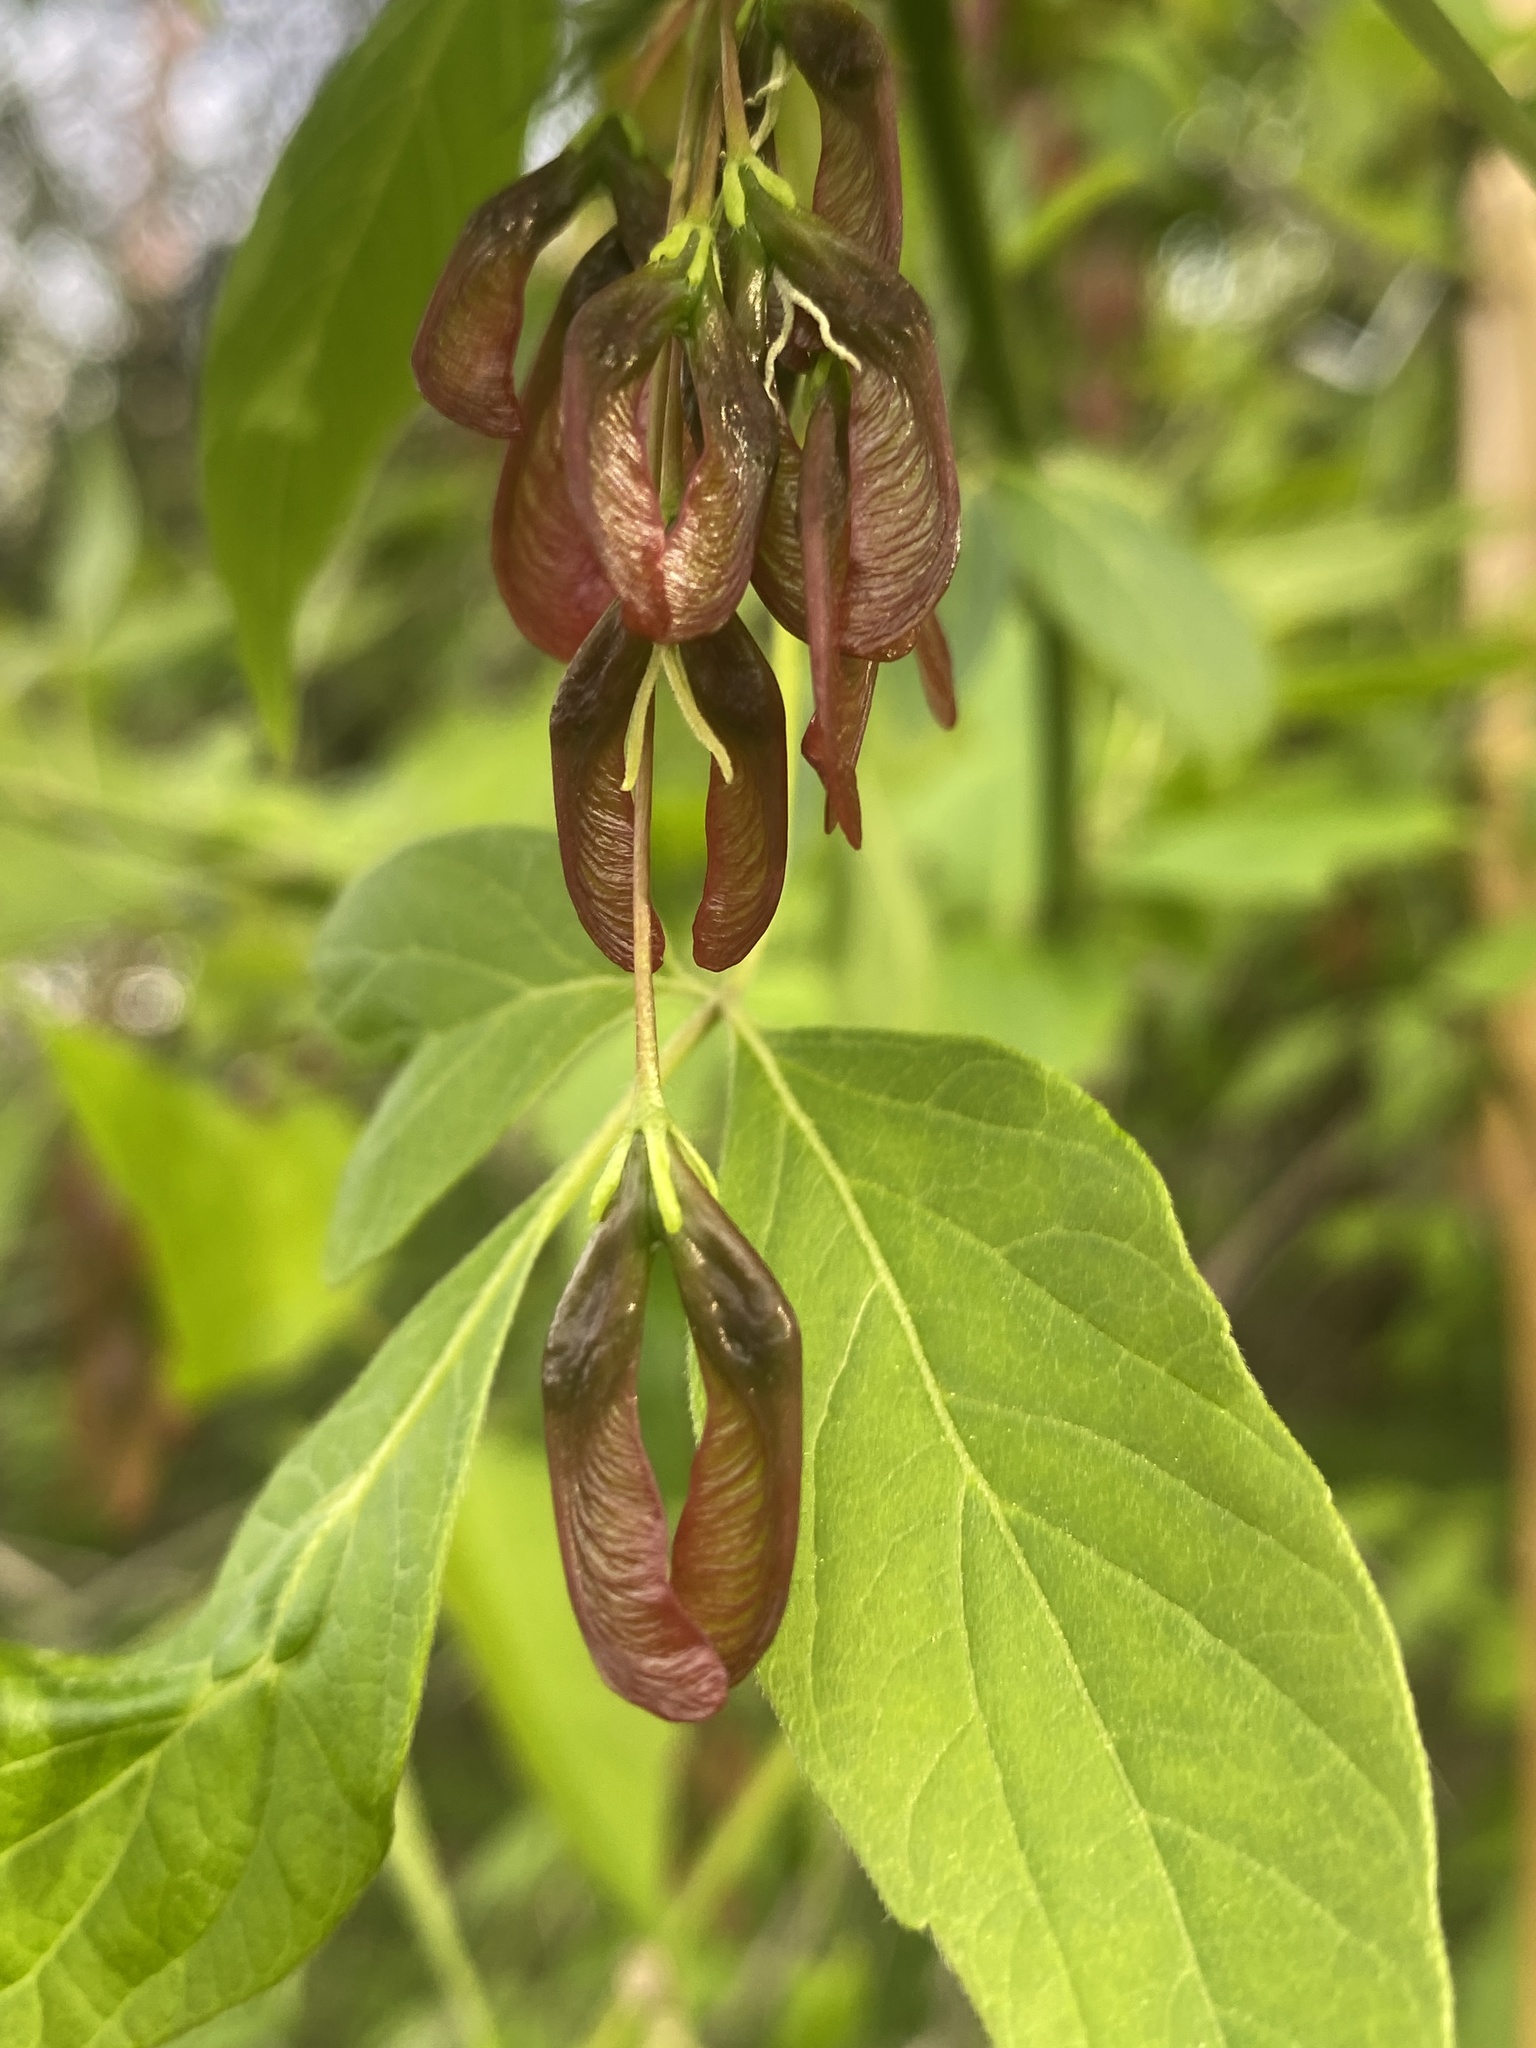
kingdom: Plantae
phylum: Tracheophyta
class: Magnoliopsida
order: Sapindales
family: Sapindaceae
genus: Acer
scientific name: Acer negundo
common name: Ashleaf maple
